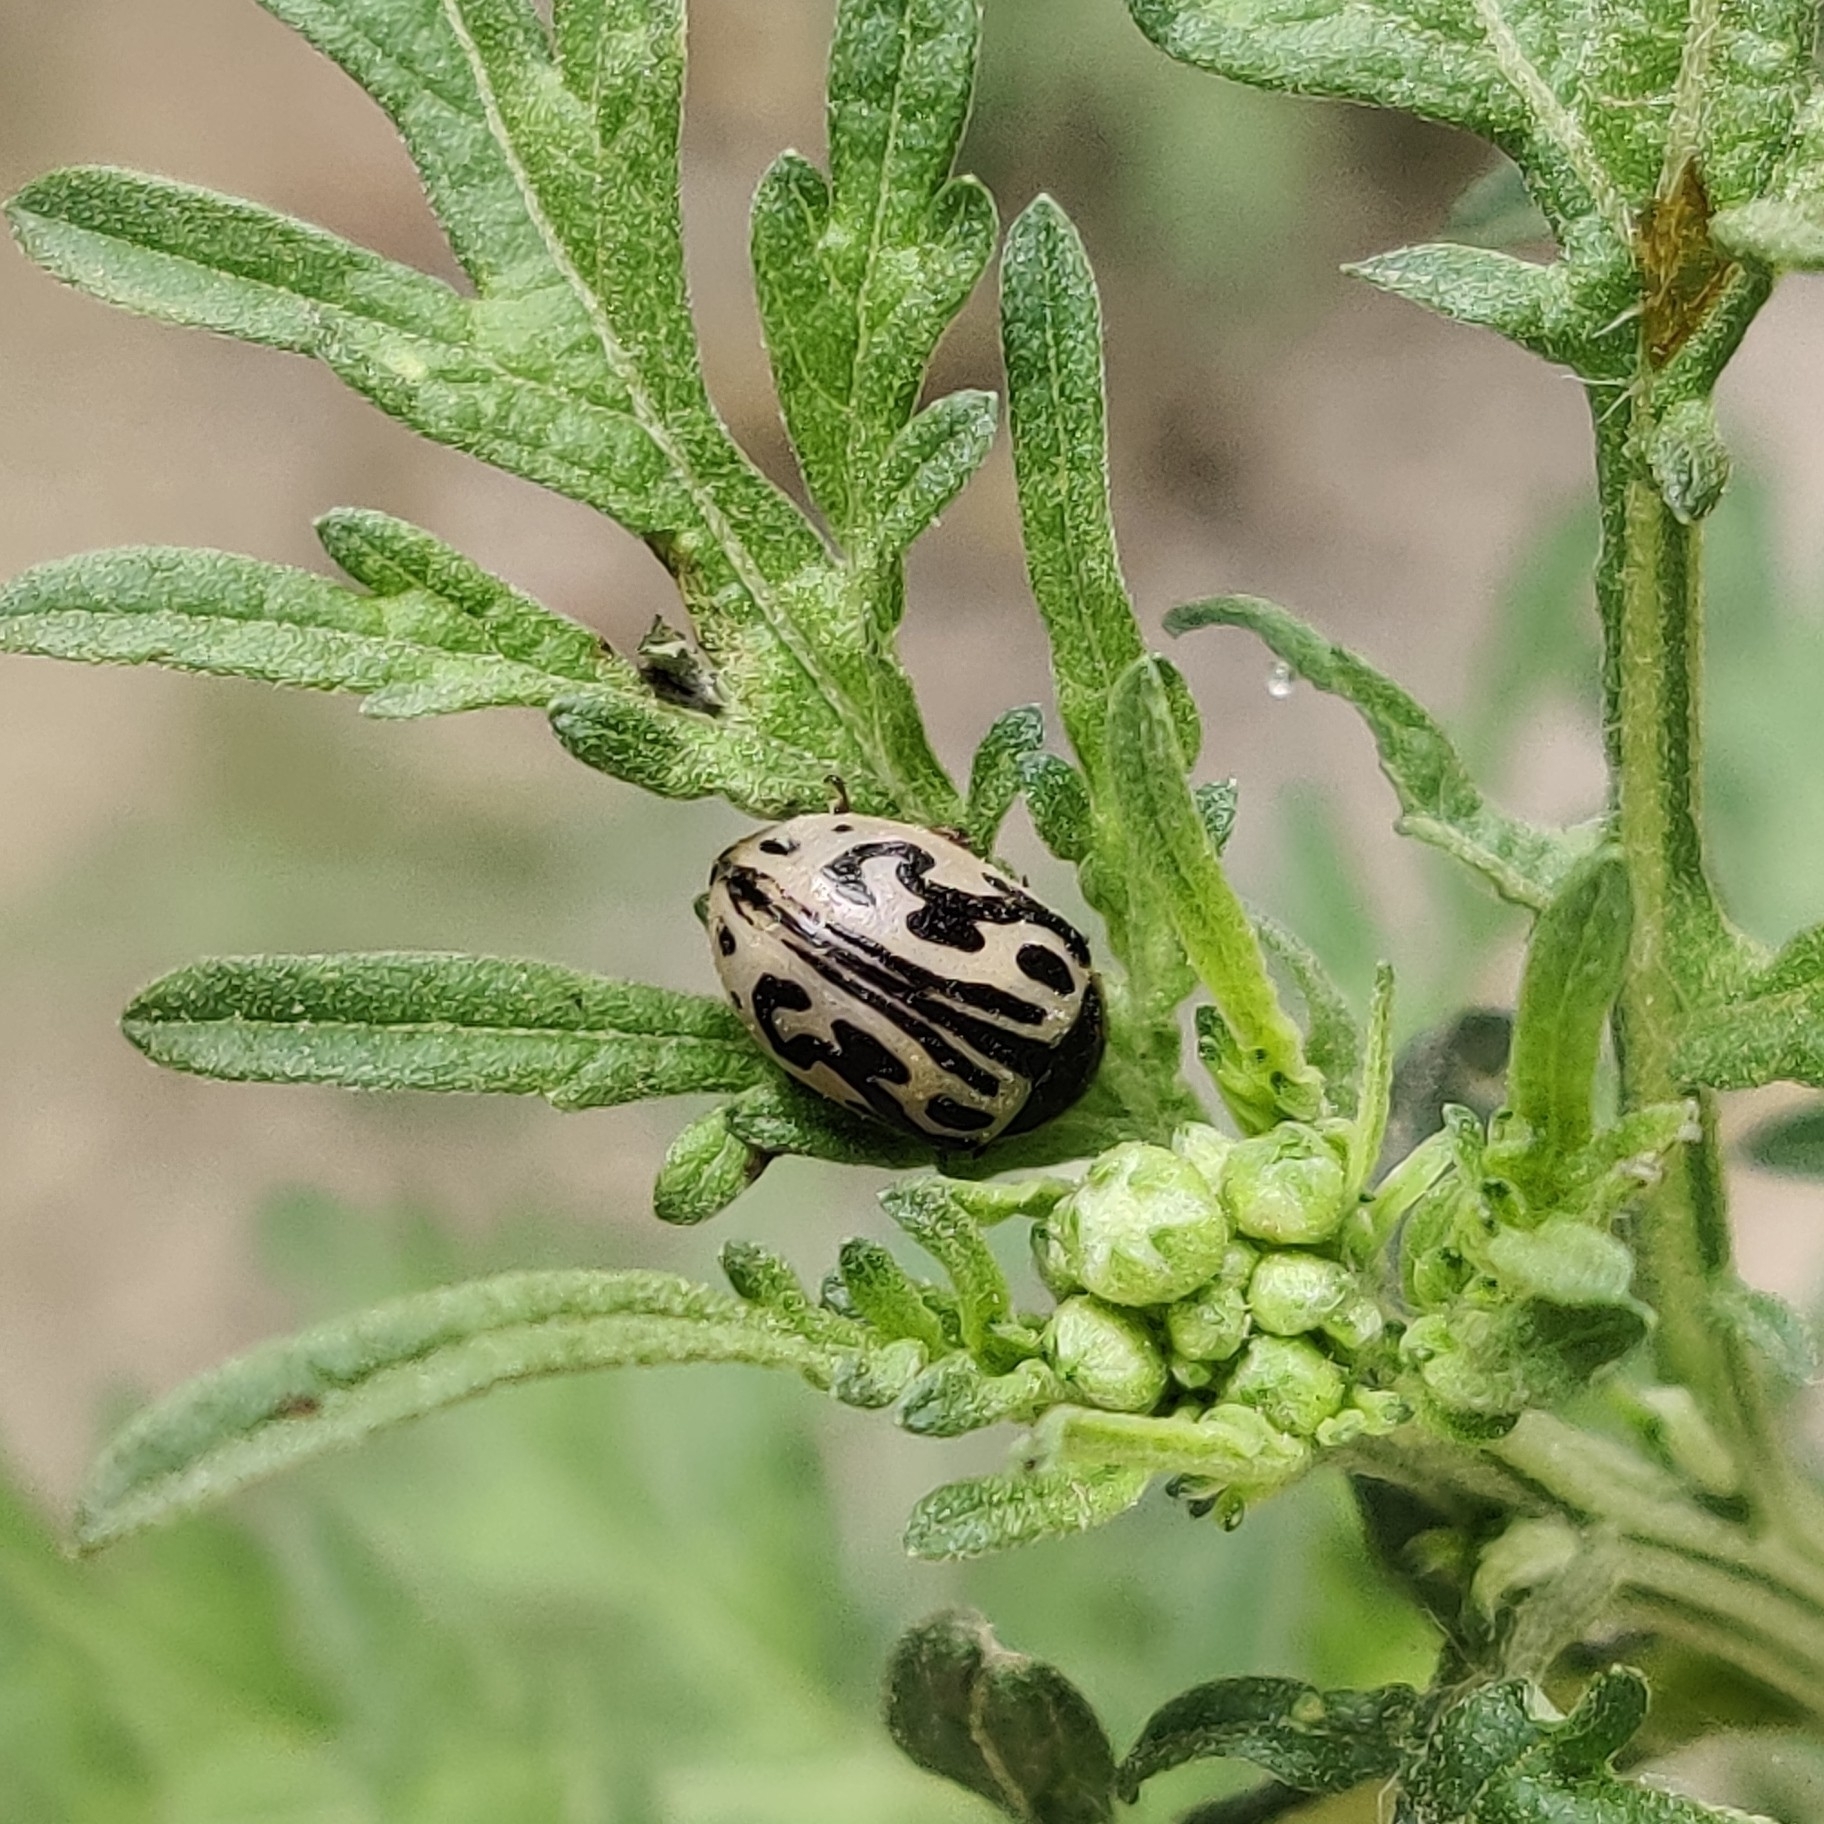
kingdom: Animalia
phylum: Arthropoda
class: Insecta
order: Coleoptera
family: Chrysomelidae
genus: Calligrapha
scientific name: Calligrapha
